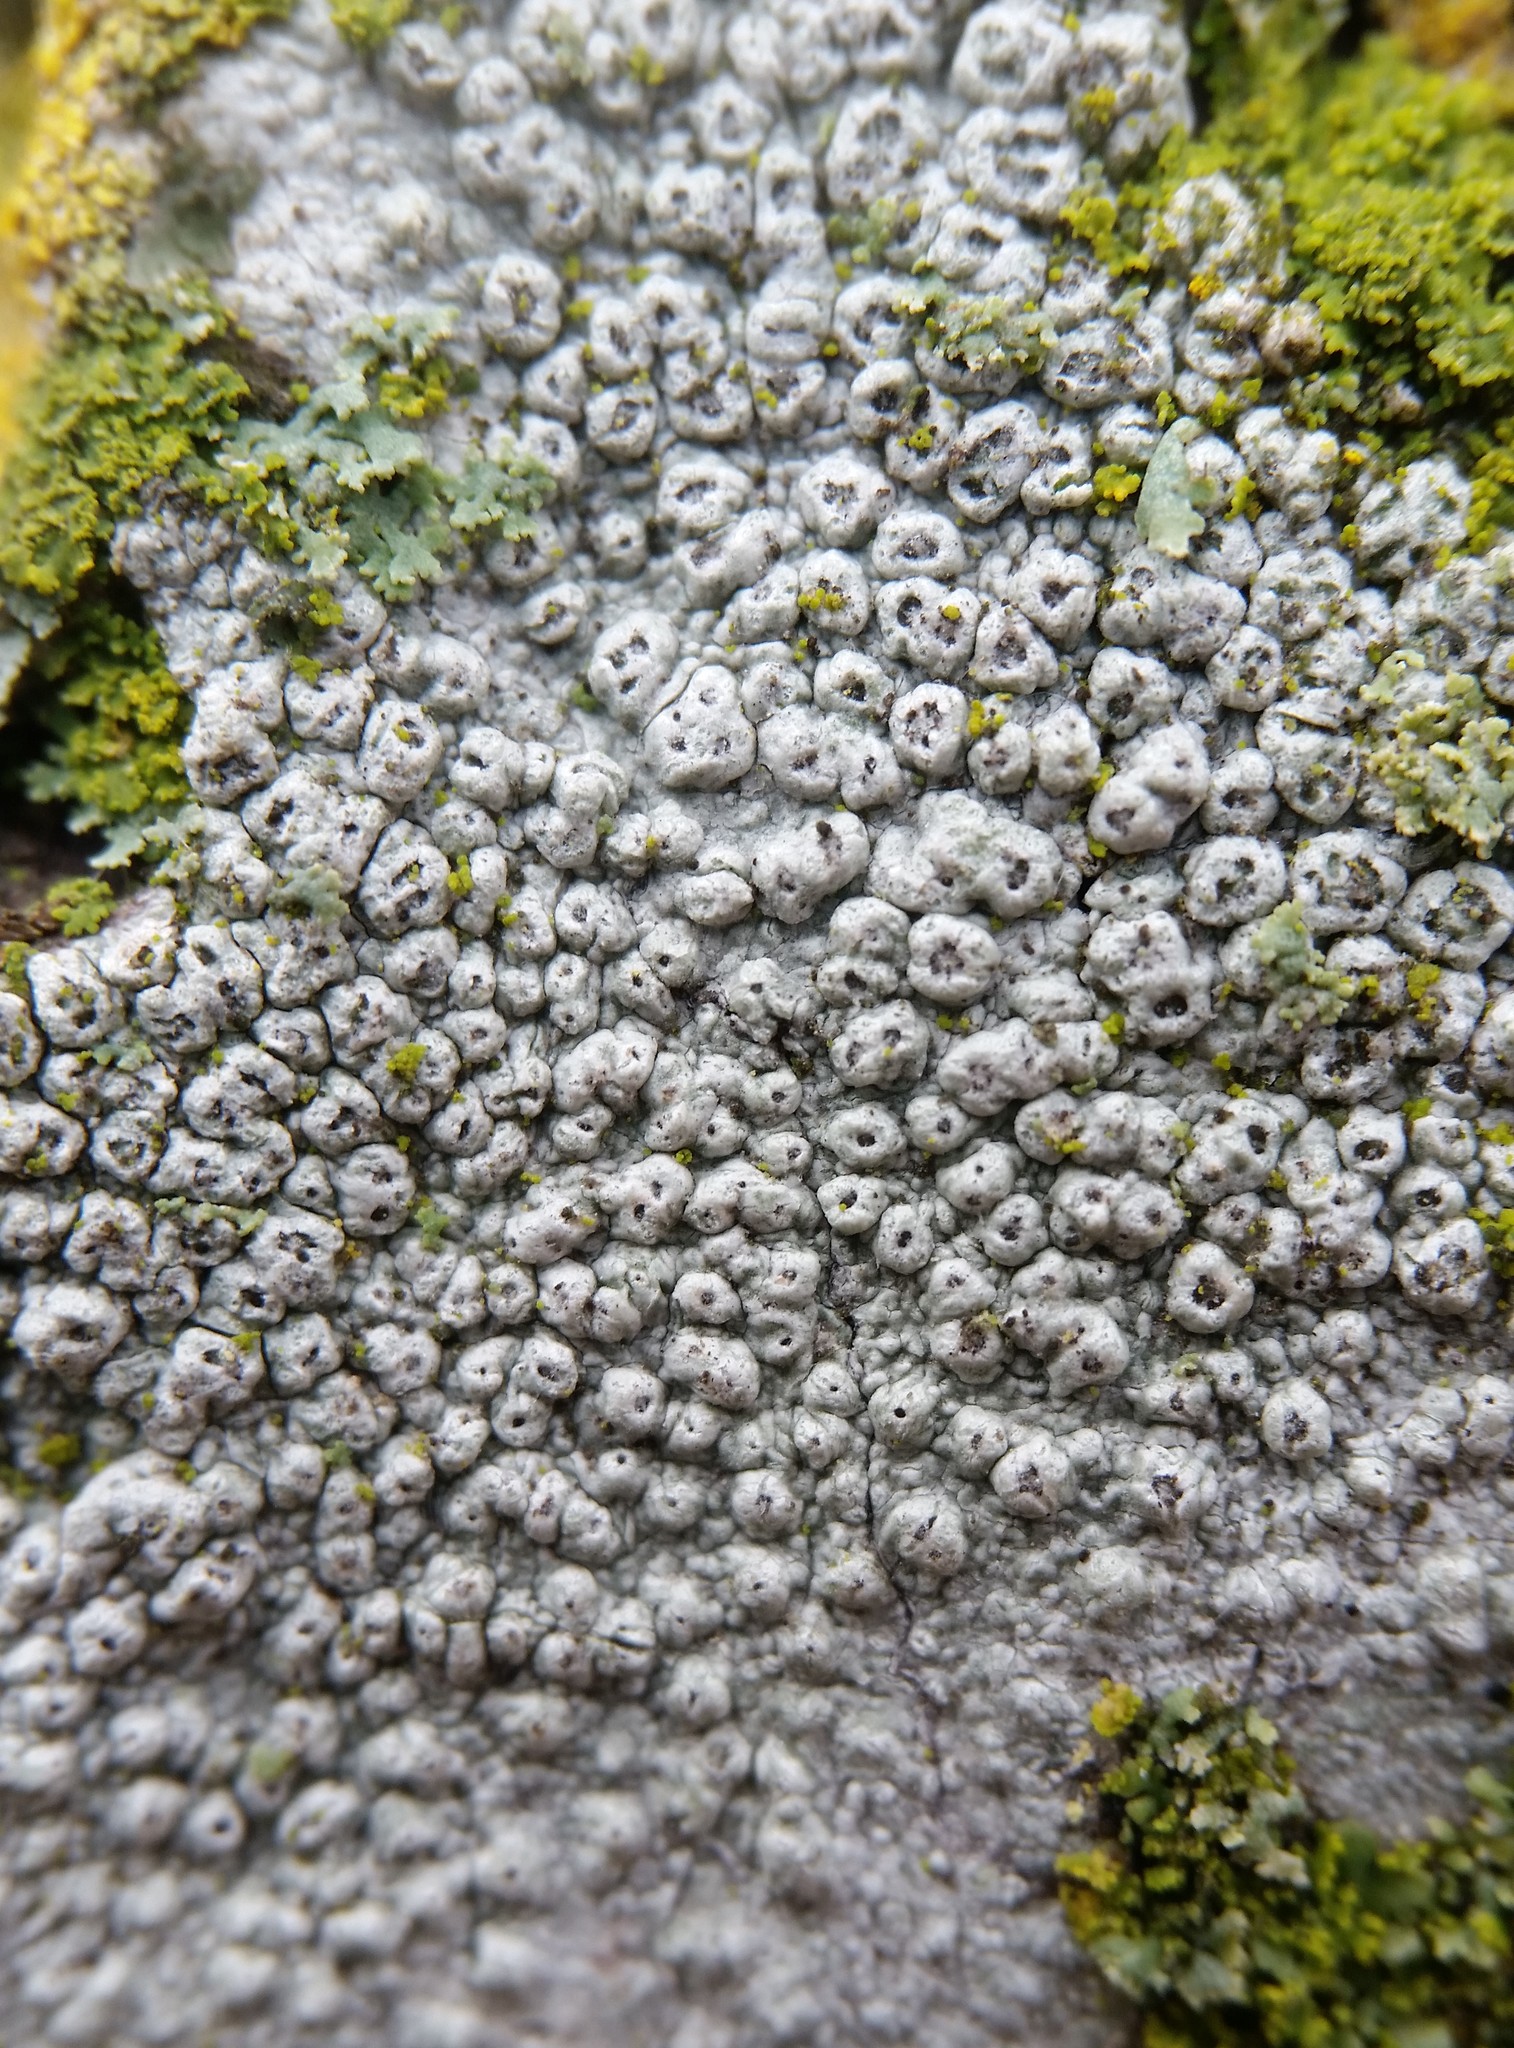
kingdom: Fungi
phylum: Ascomycota
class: Lecanoromycetes
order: Pertusariales
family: Pertusariaceae
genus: Pertusaria
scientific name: Pertusaria pustulata
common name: Branch bumps
